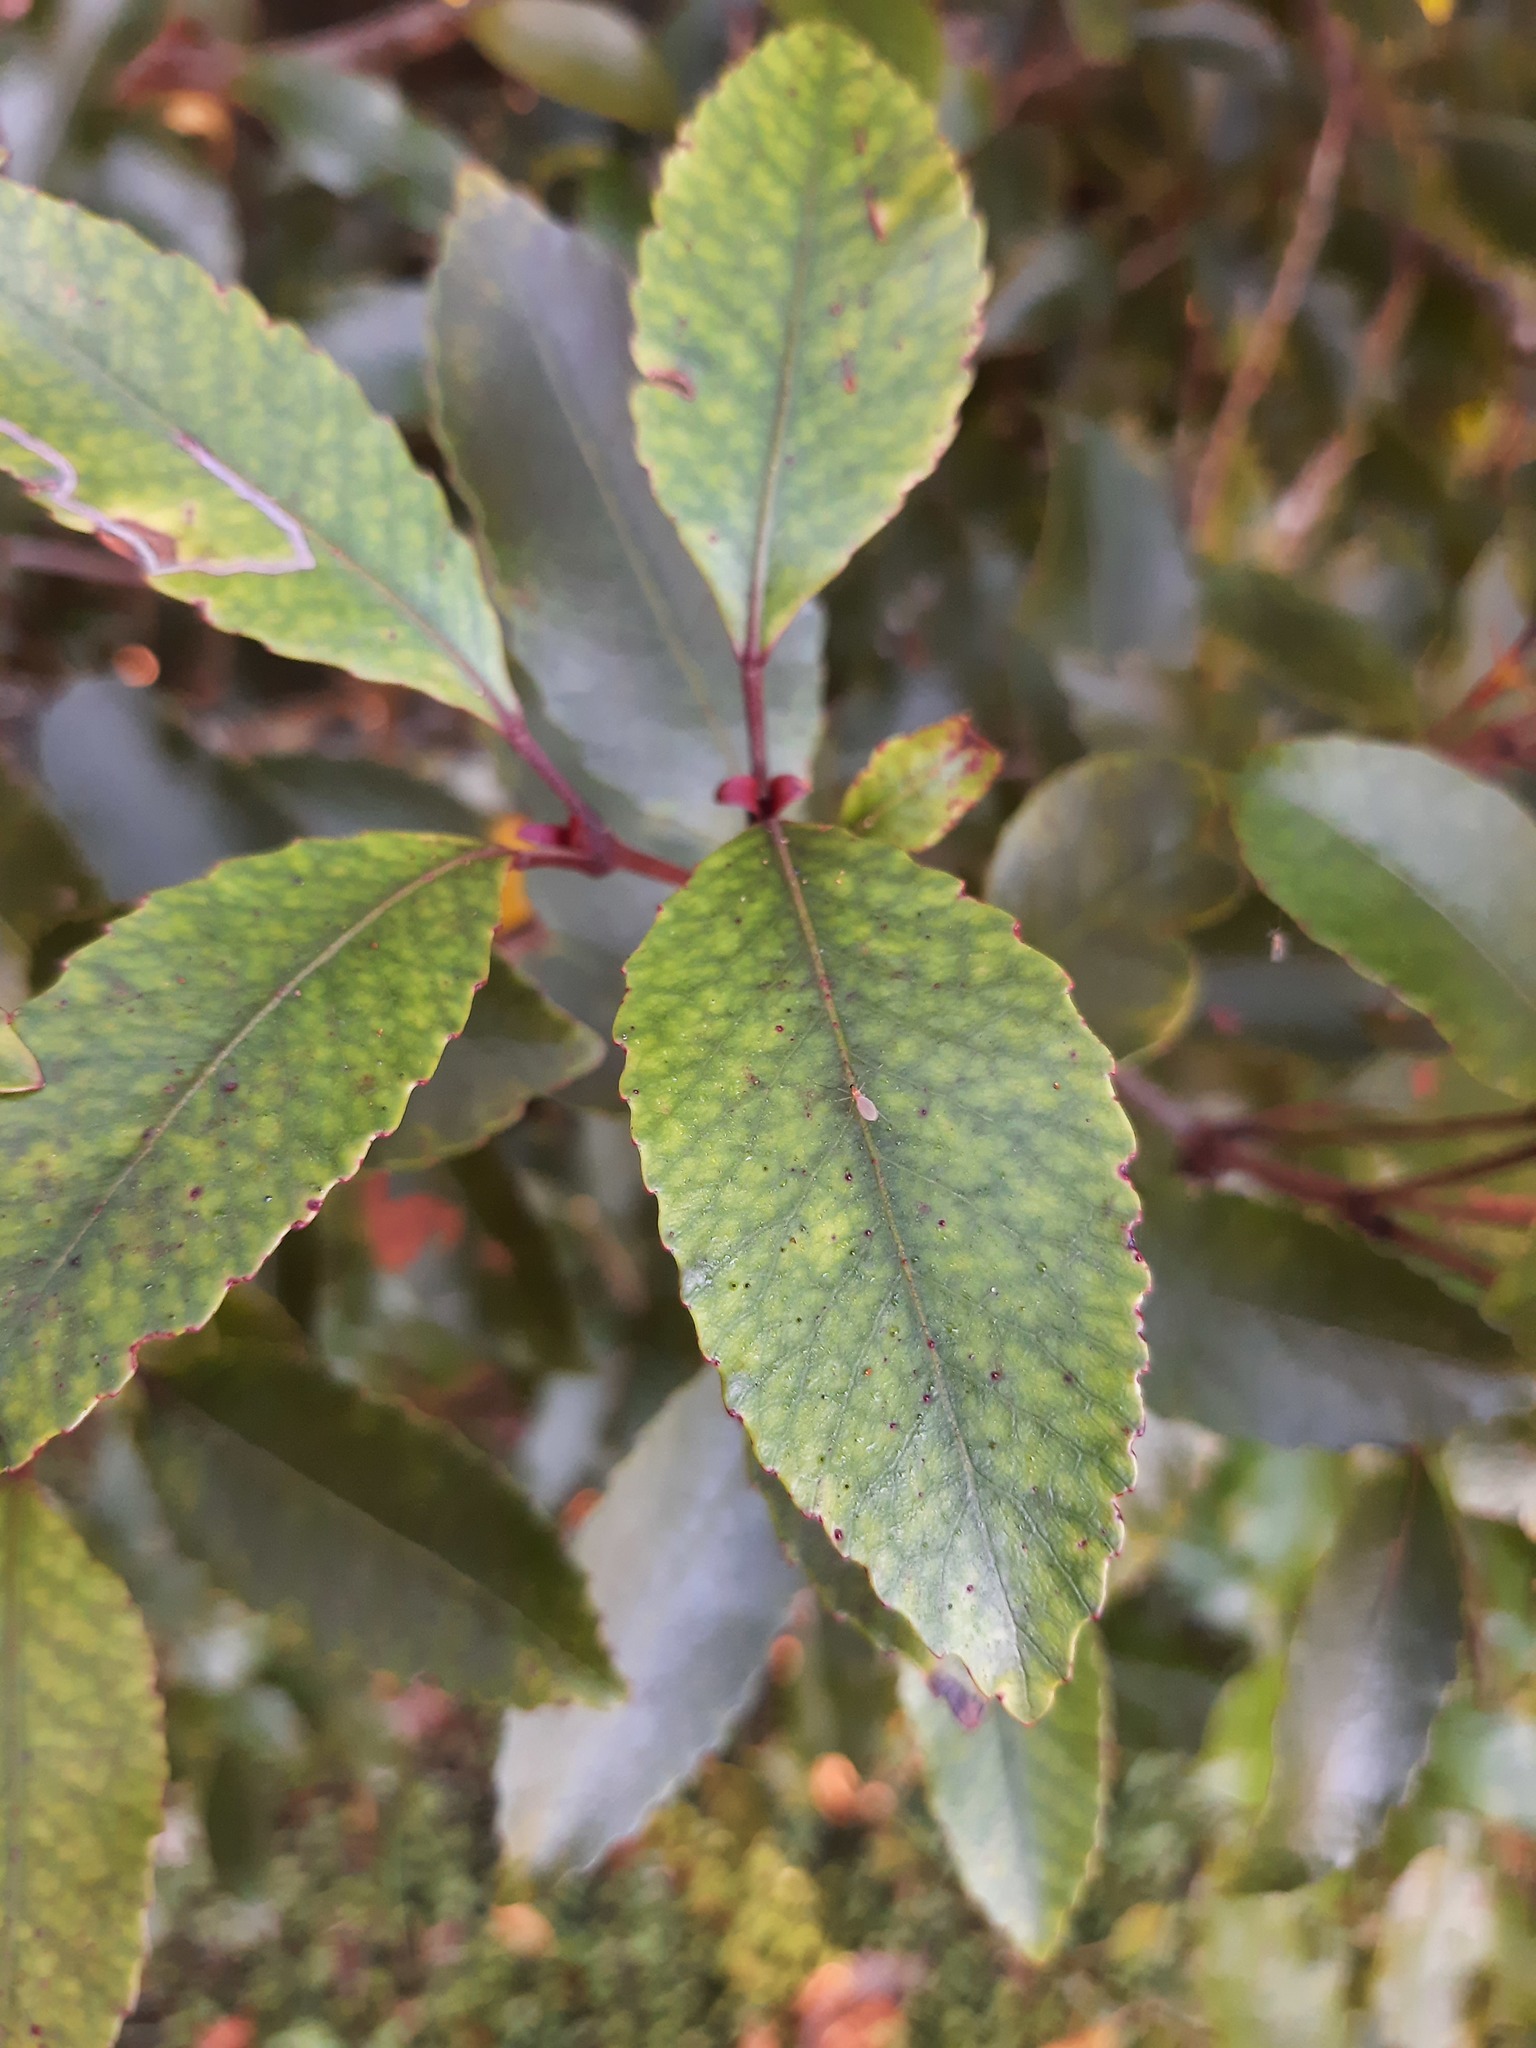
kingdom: Plantae
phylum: Tracheophyta
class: Magnoliopsida
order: Oxalidales
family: Cunoniaceae
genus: Pterophylla
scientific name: Pterophylla racemosa
